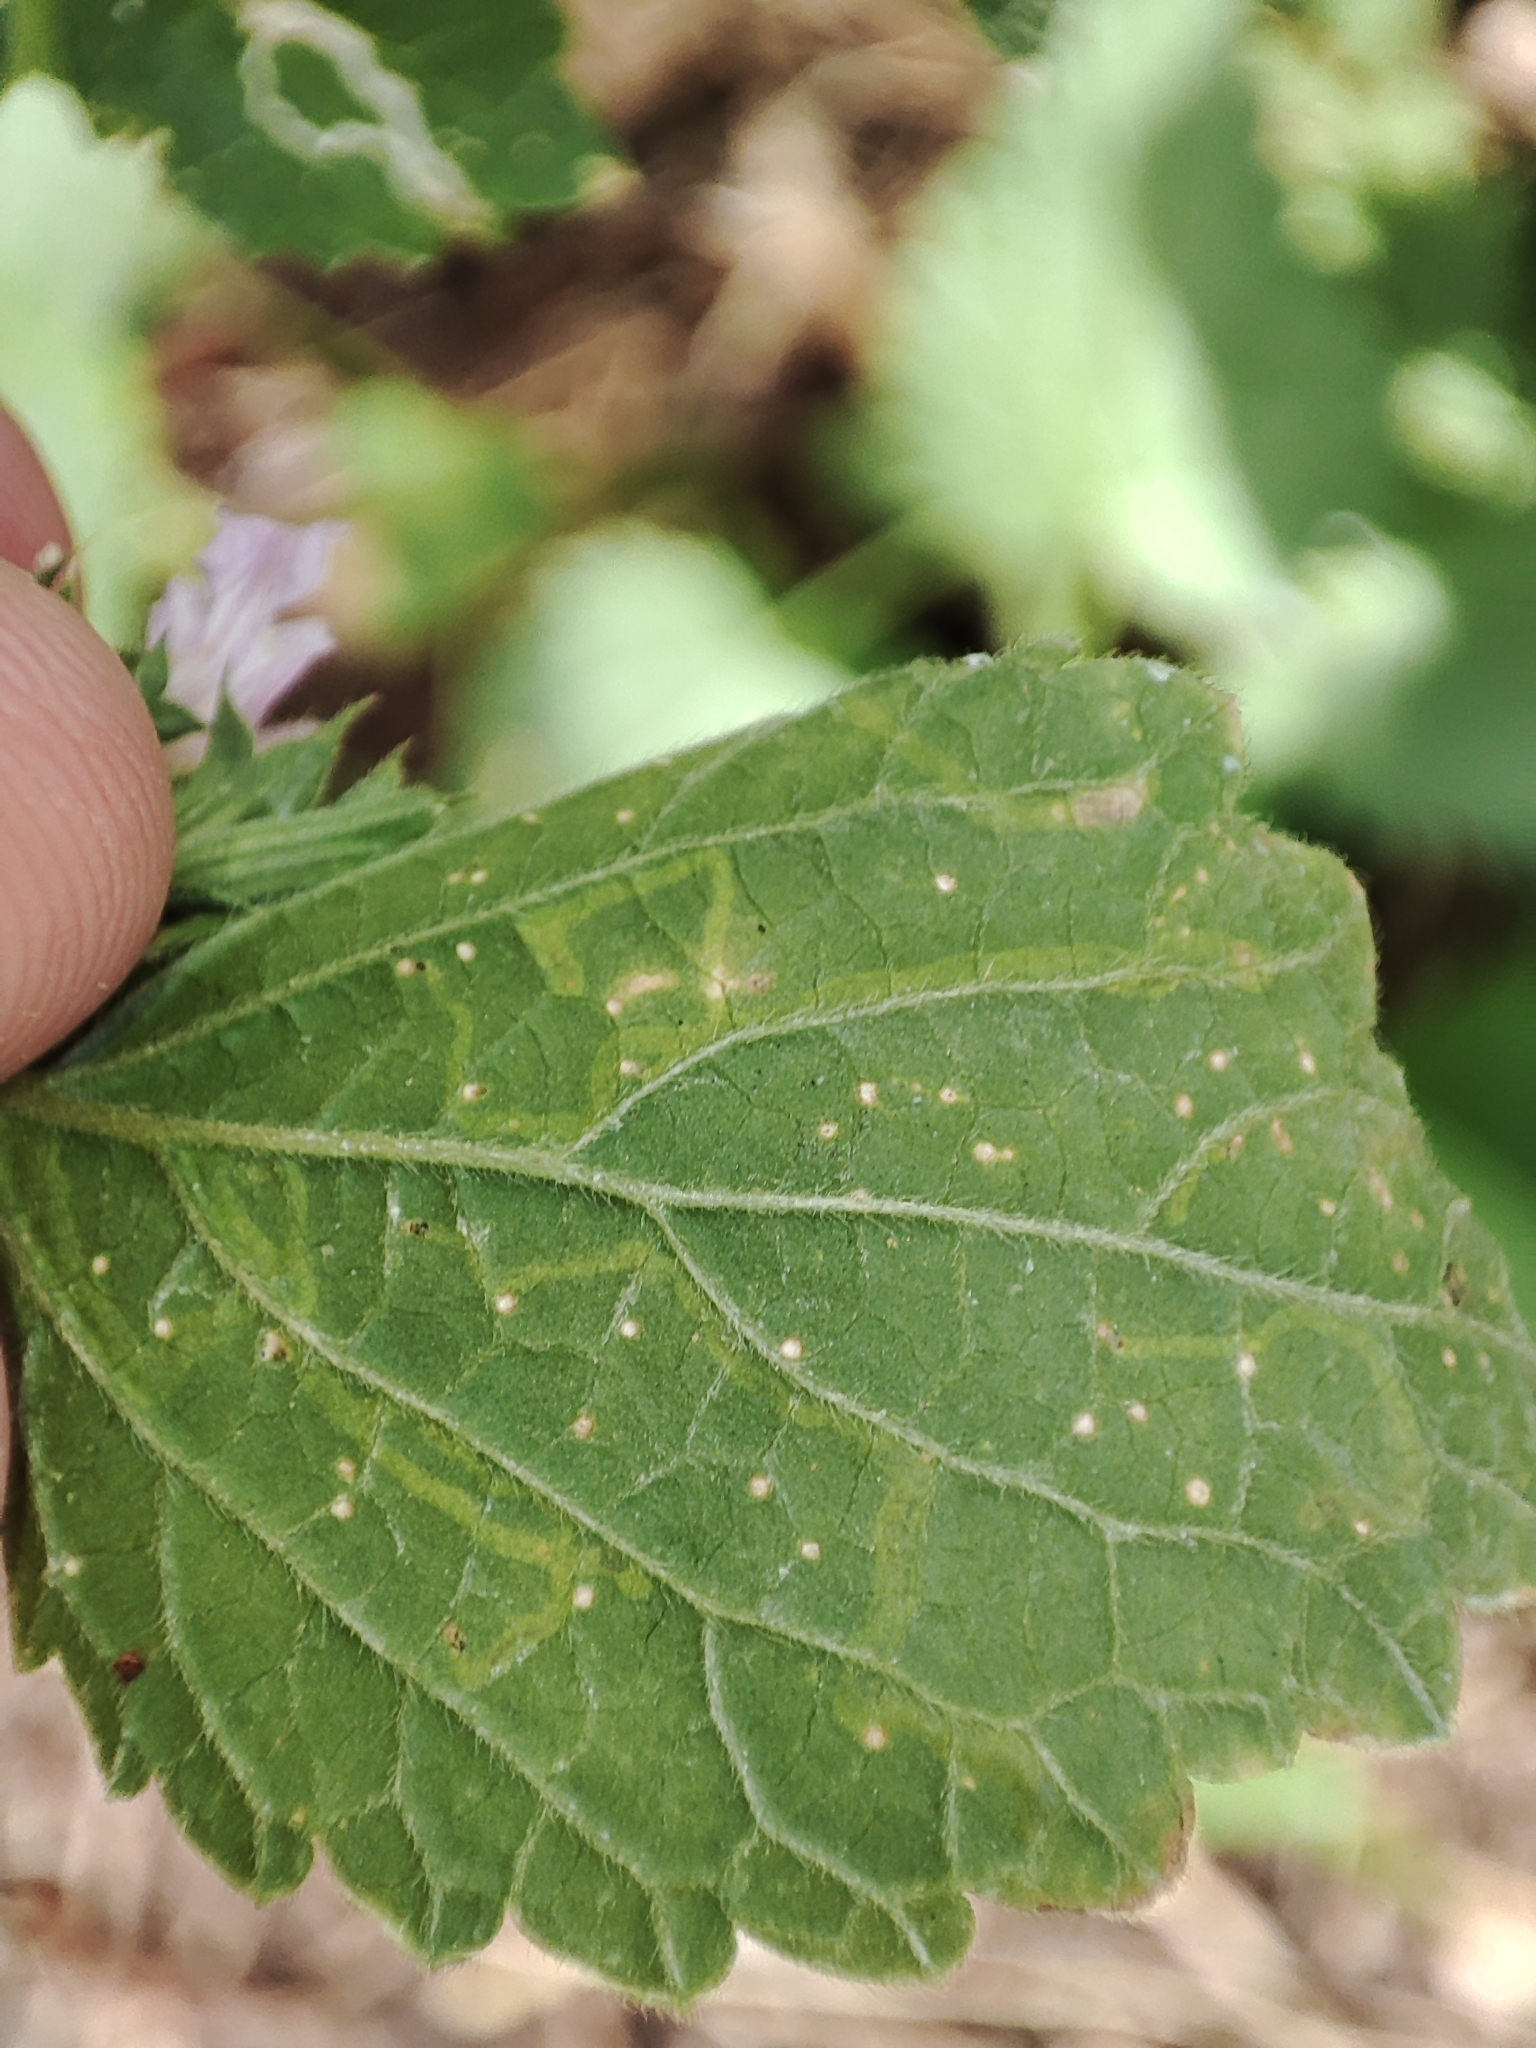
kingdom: Plantae
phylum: Tracheophyta
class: Magnoliopsida
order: Lamiales
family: Lamiaceae
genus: Ballota
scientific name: Ballota nigra
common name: Black horehound
